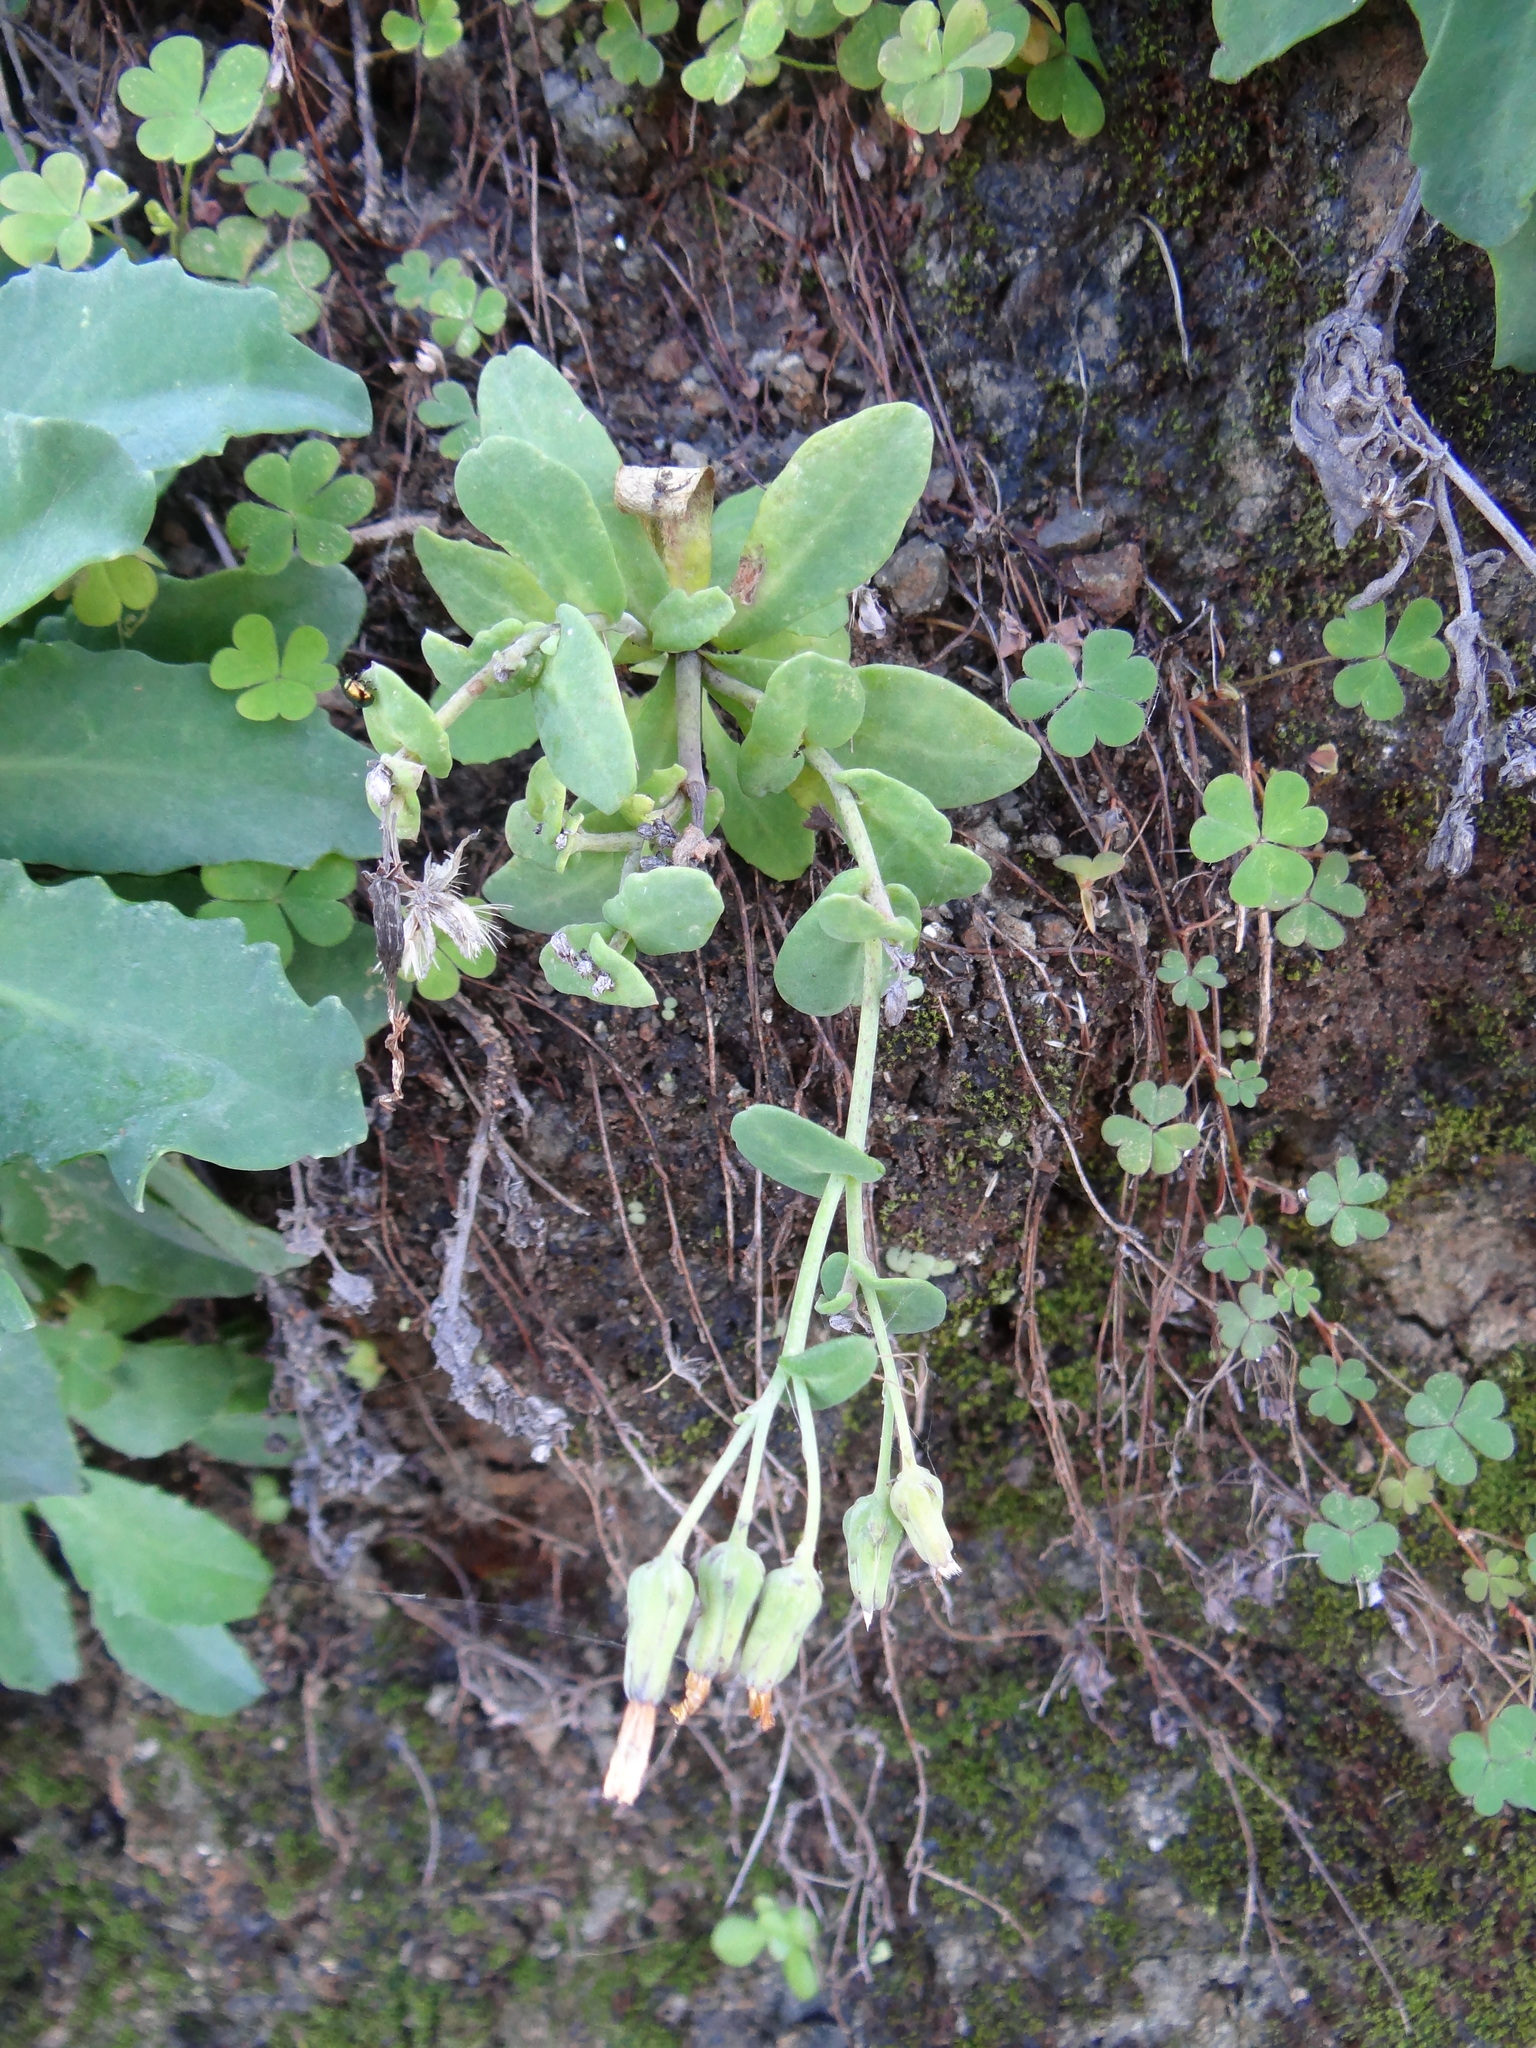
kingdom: Plantae
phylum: Tracheophyta
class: Magnoliopsida
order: Asterales
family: Asteraceae
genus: Crepidiastrum
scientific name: Crepidiastrum taiwanianum
